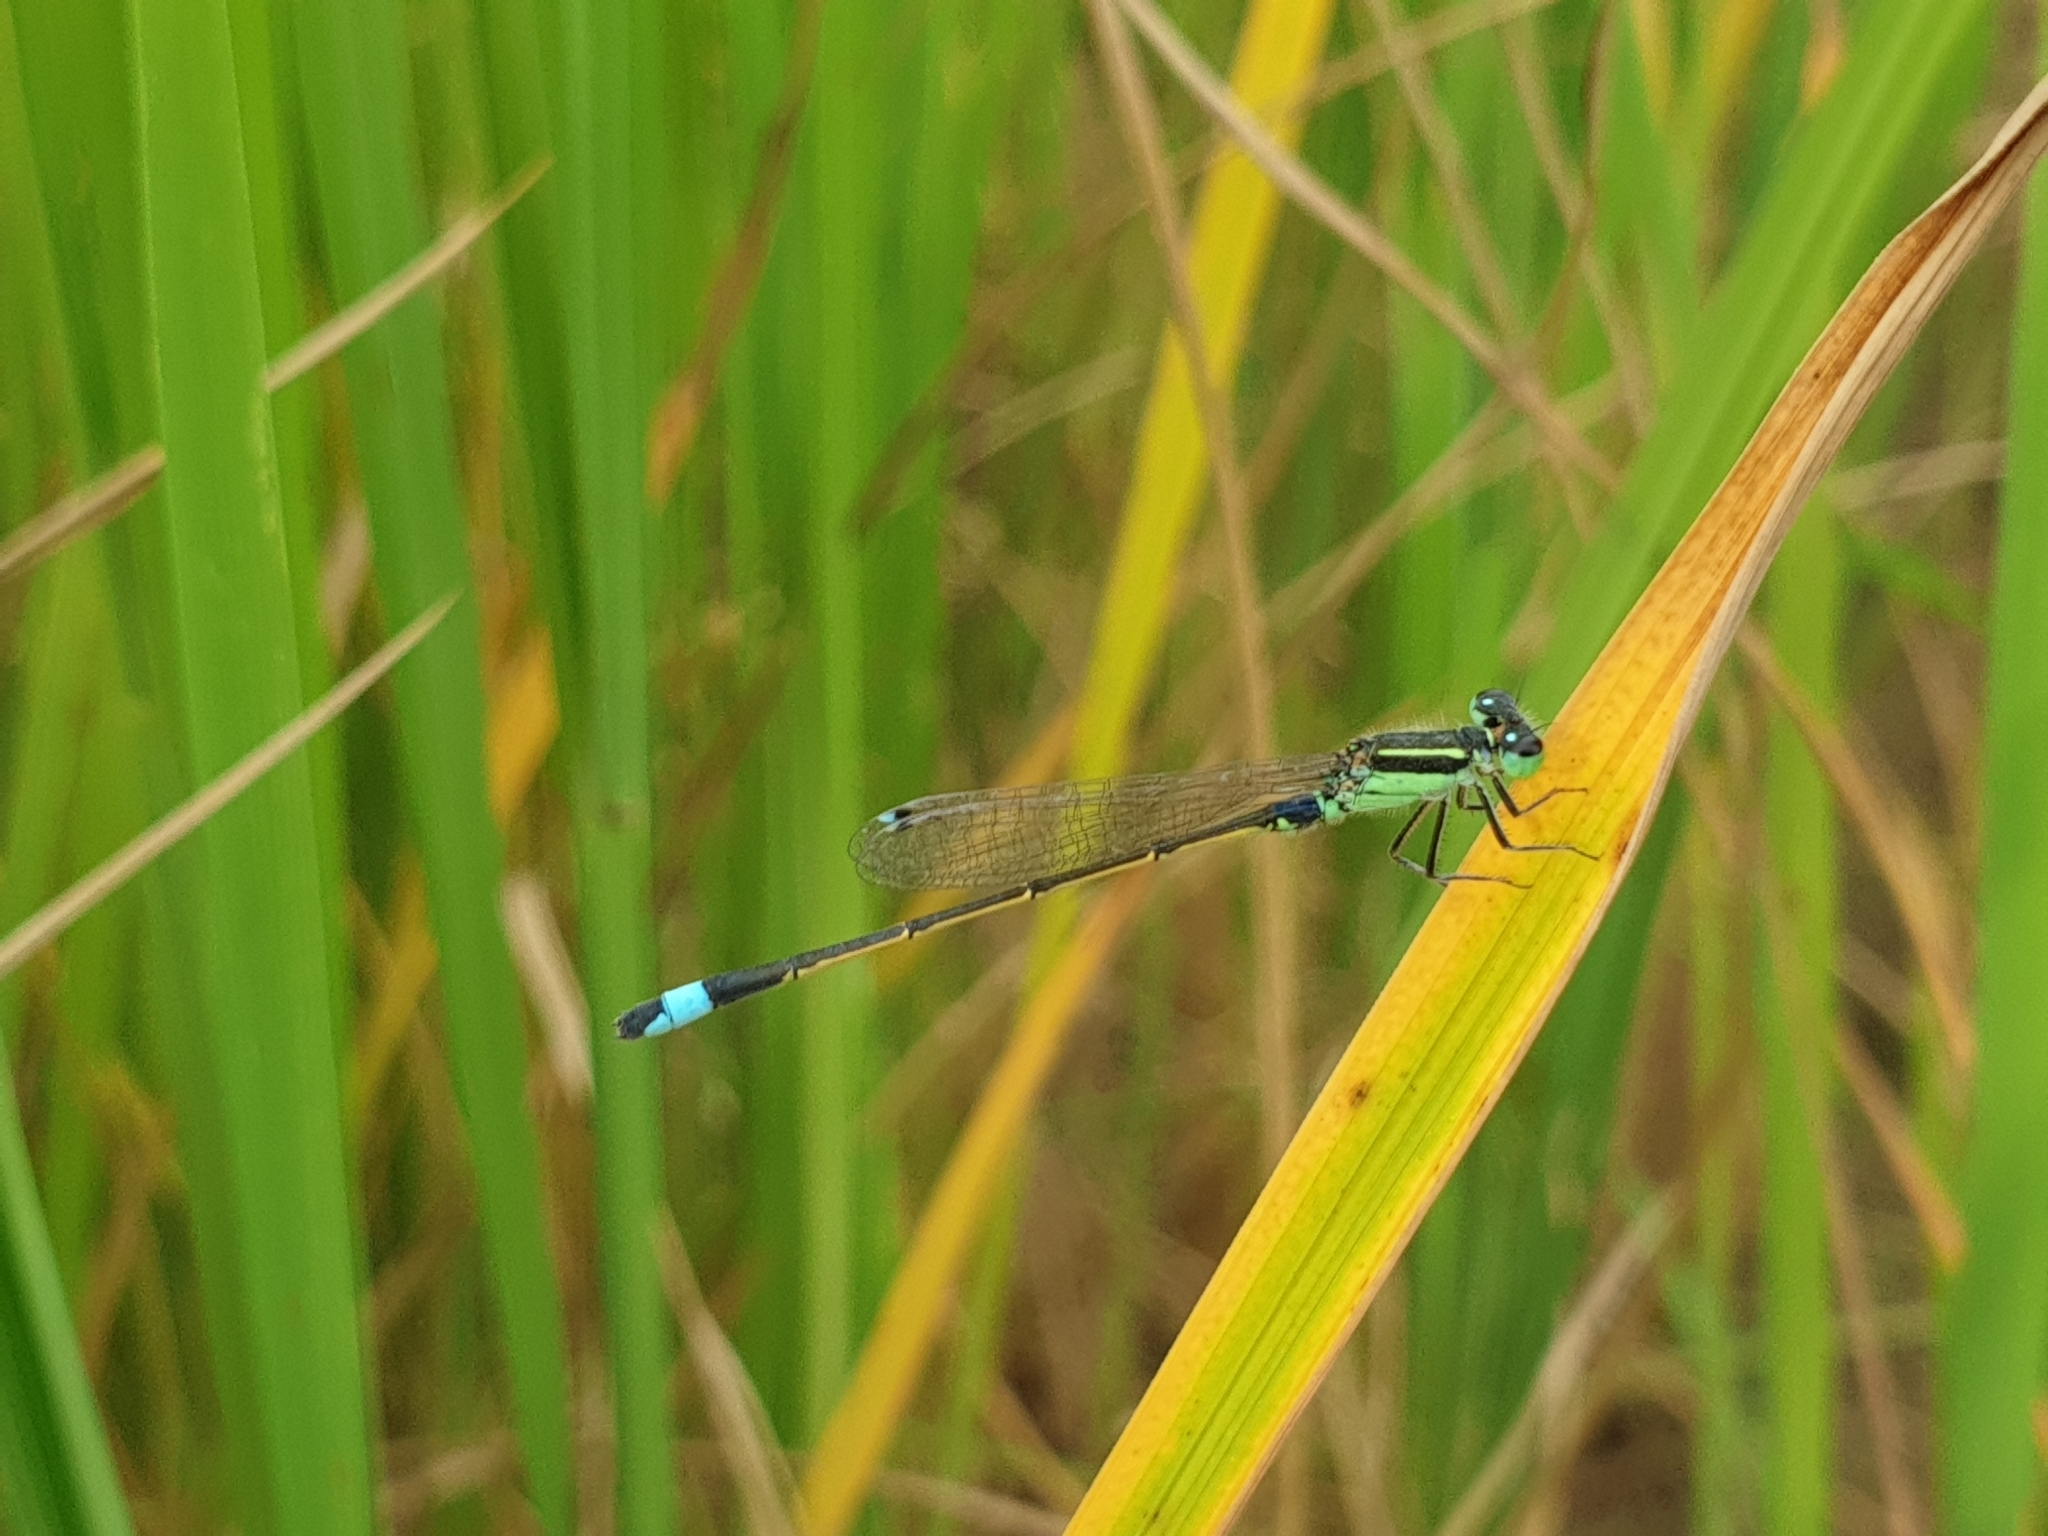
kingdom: Animalia
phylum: Arthropoda
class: Insecta
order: Odonata
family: Coenagrionidae
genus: Ischnura
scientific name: Ischnura senegalensis
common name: Tropical bluetail
